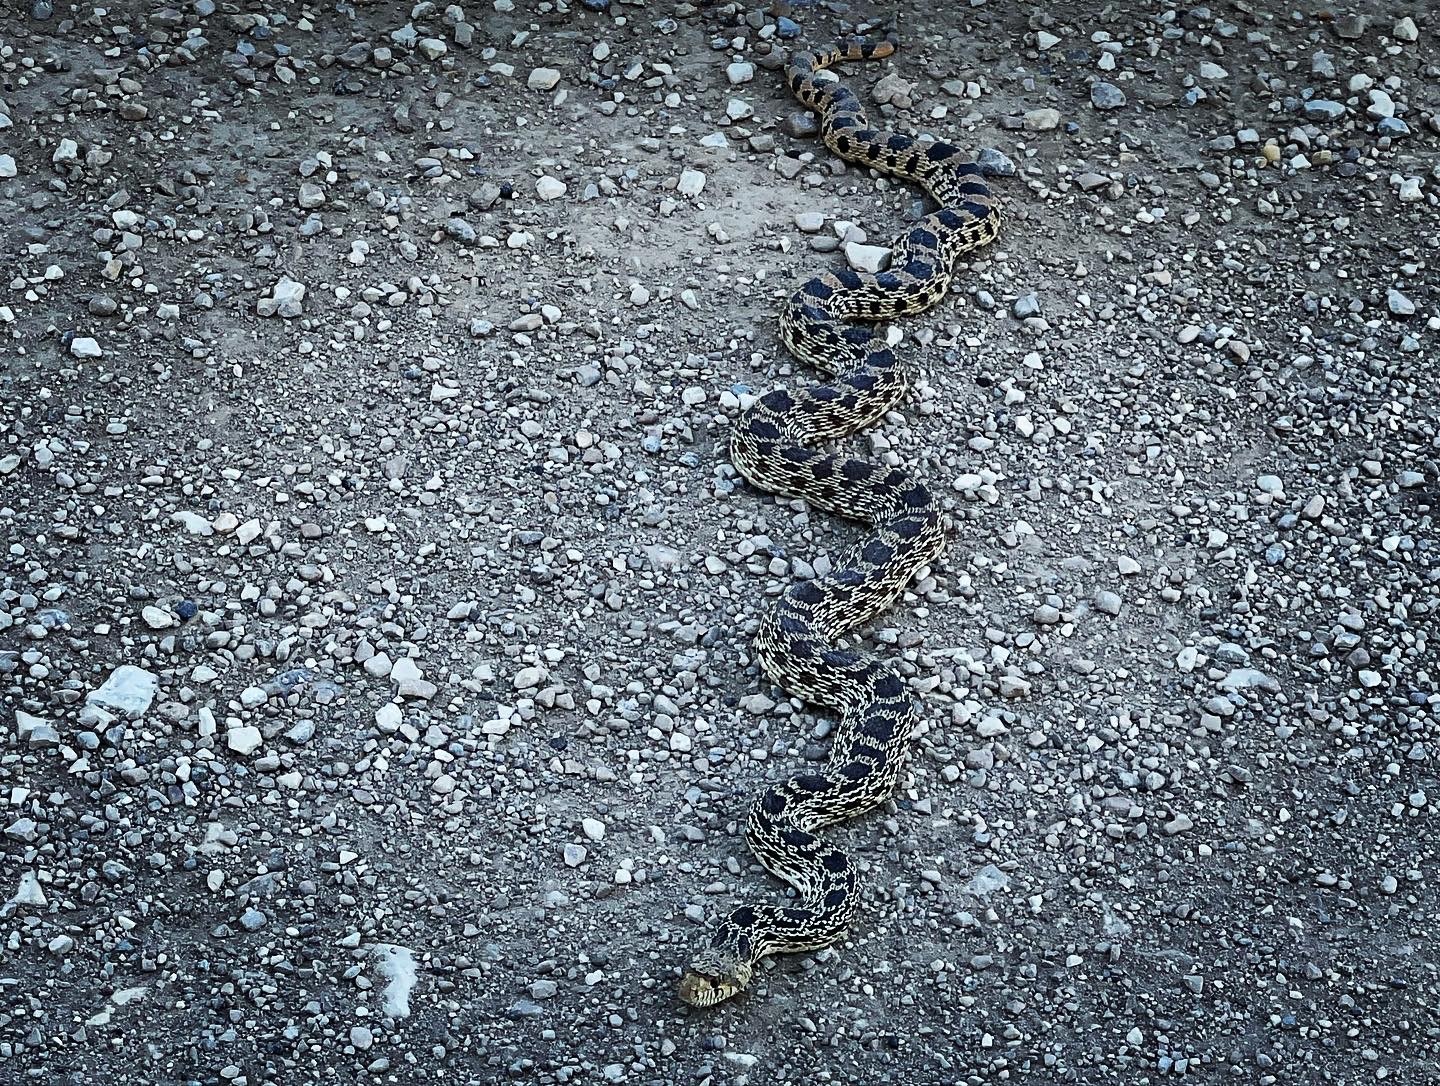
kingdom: Animalia
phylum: Chordata
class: Squamata
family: Colubridae
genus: Pituophis
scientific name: Pituophis catenifer
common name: Gopher snake
